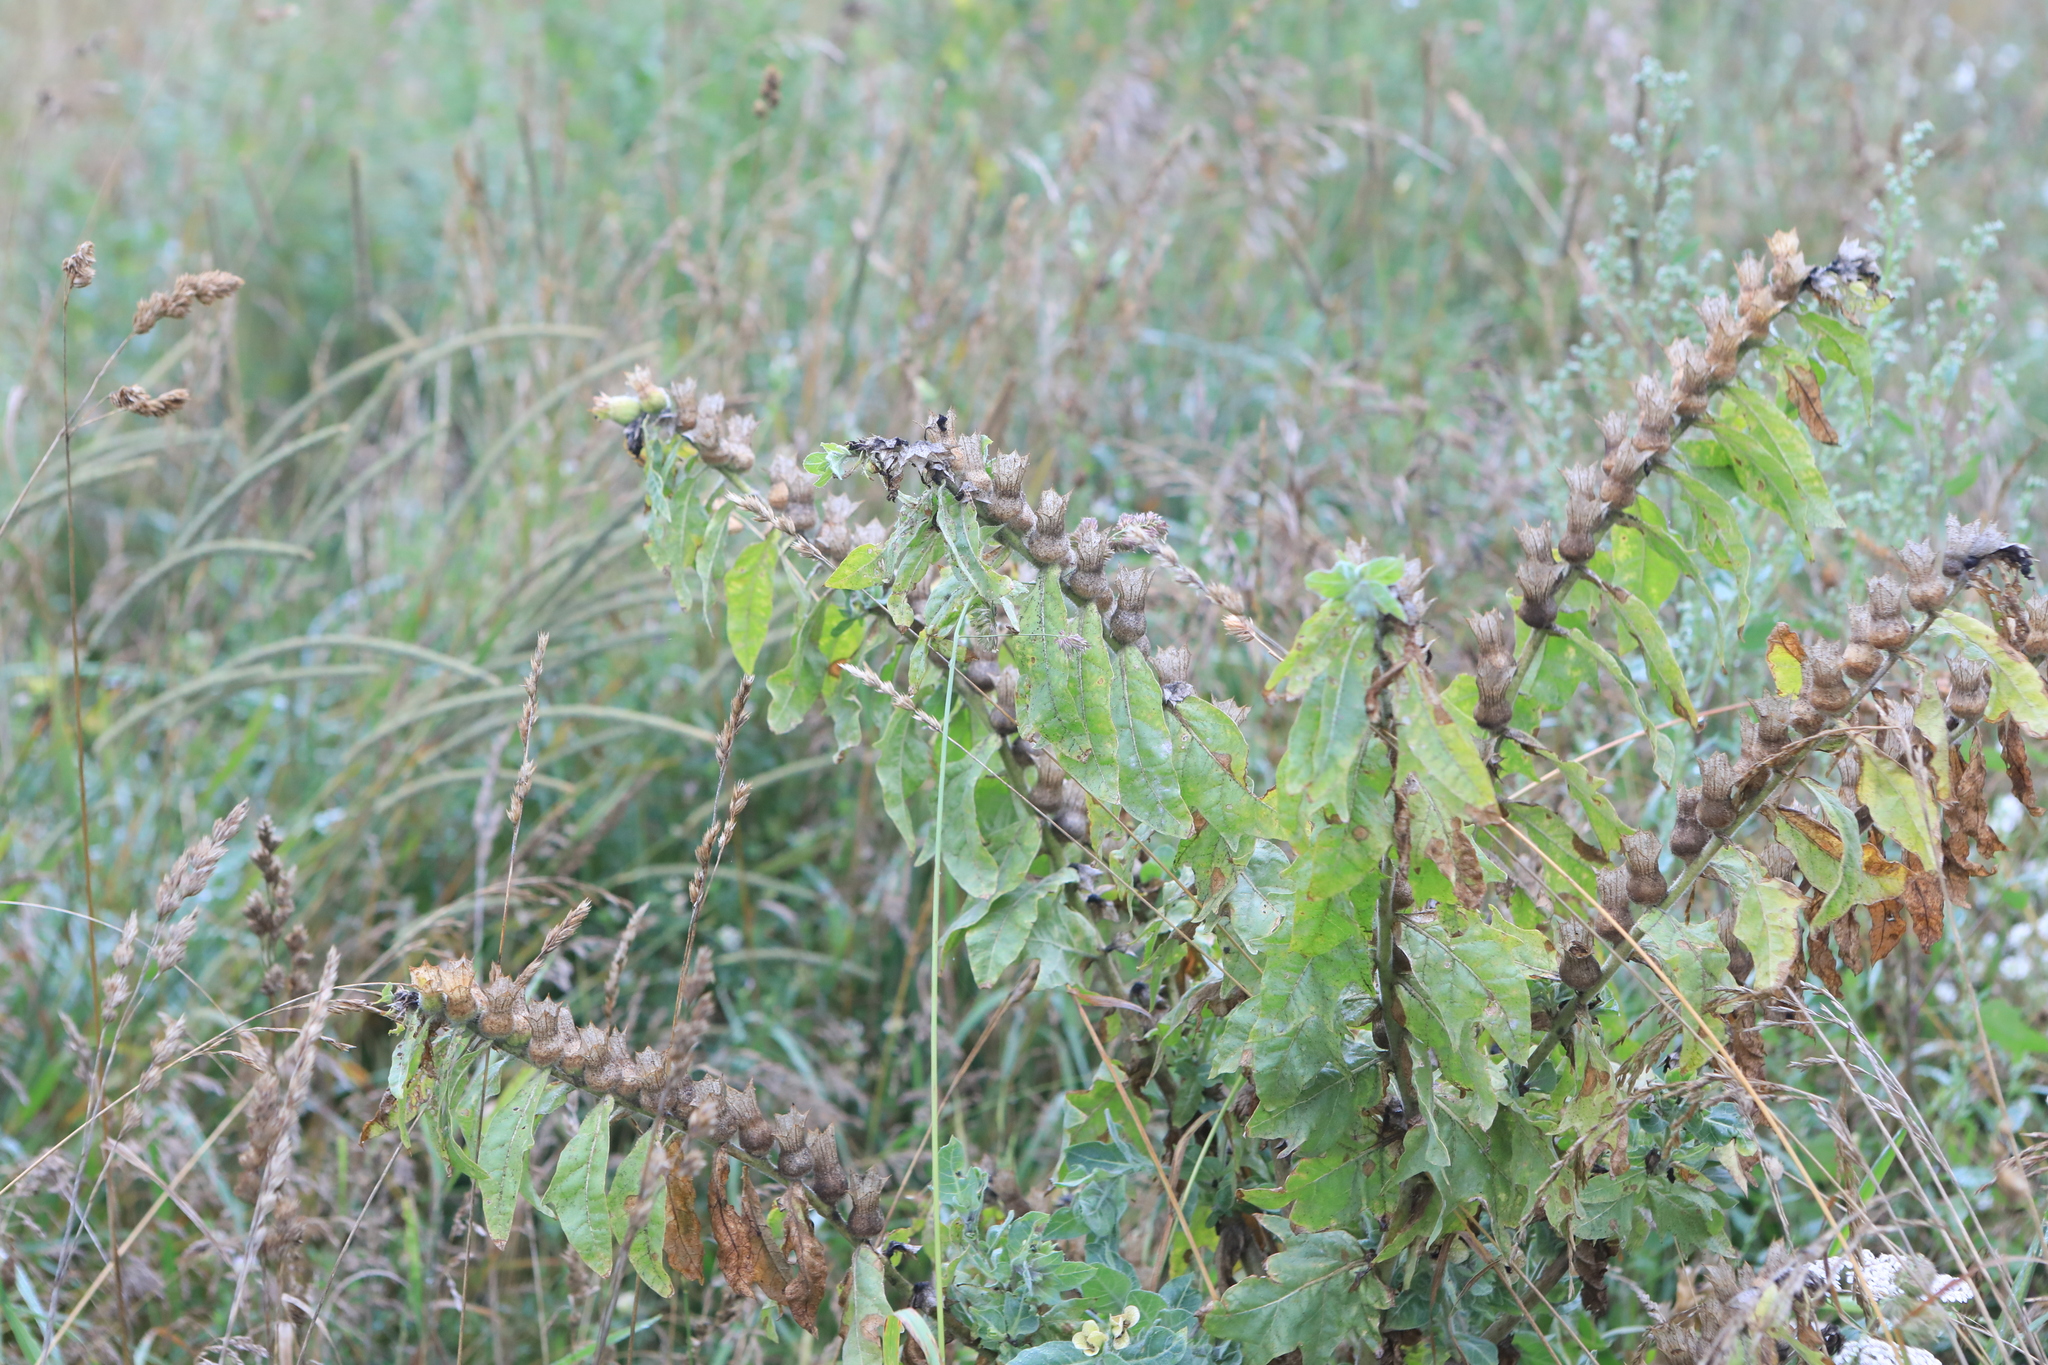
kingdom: Plantae
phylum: Tracheophyta
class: Magnoliopsida
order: Solanales
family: Solanaceae
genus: Hyoscyamus
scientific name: Hyoscyamus niger
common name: Henbane
